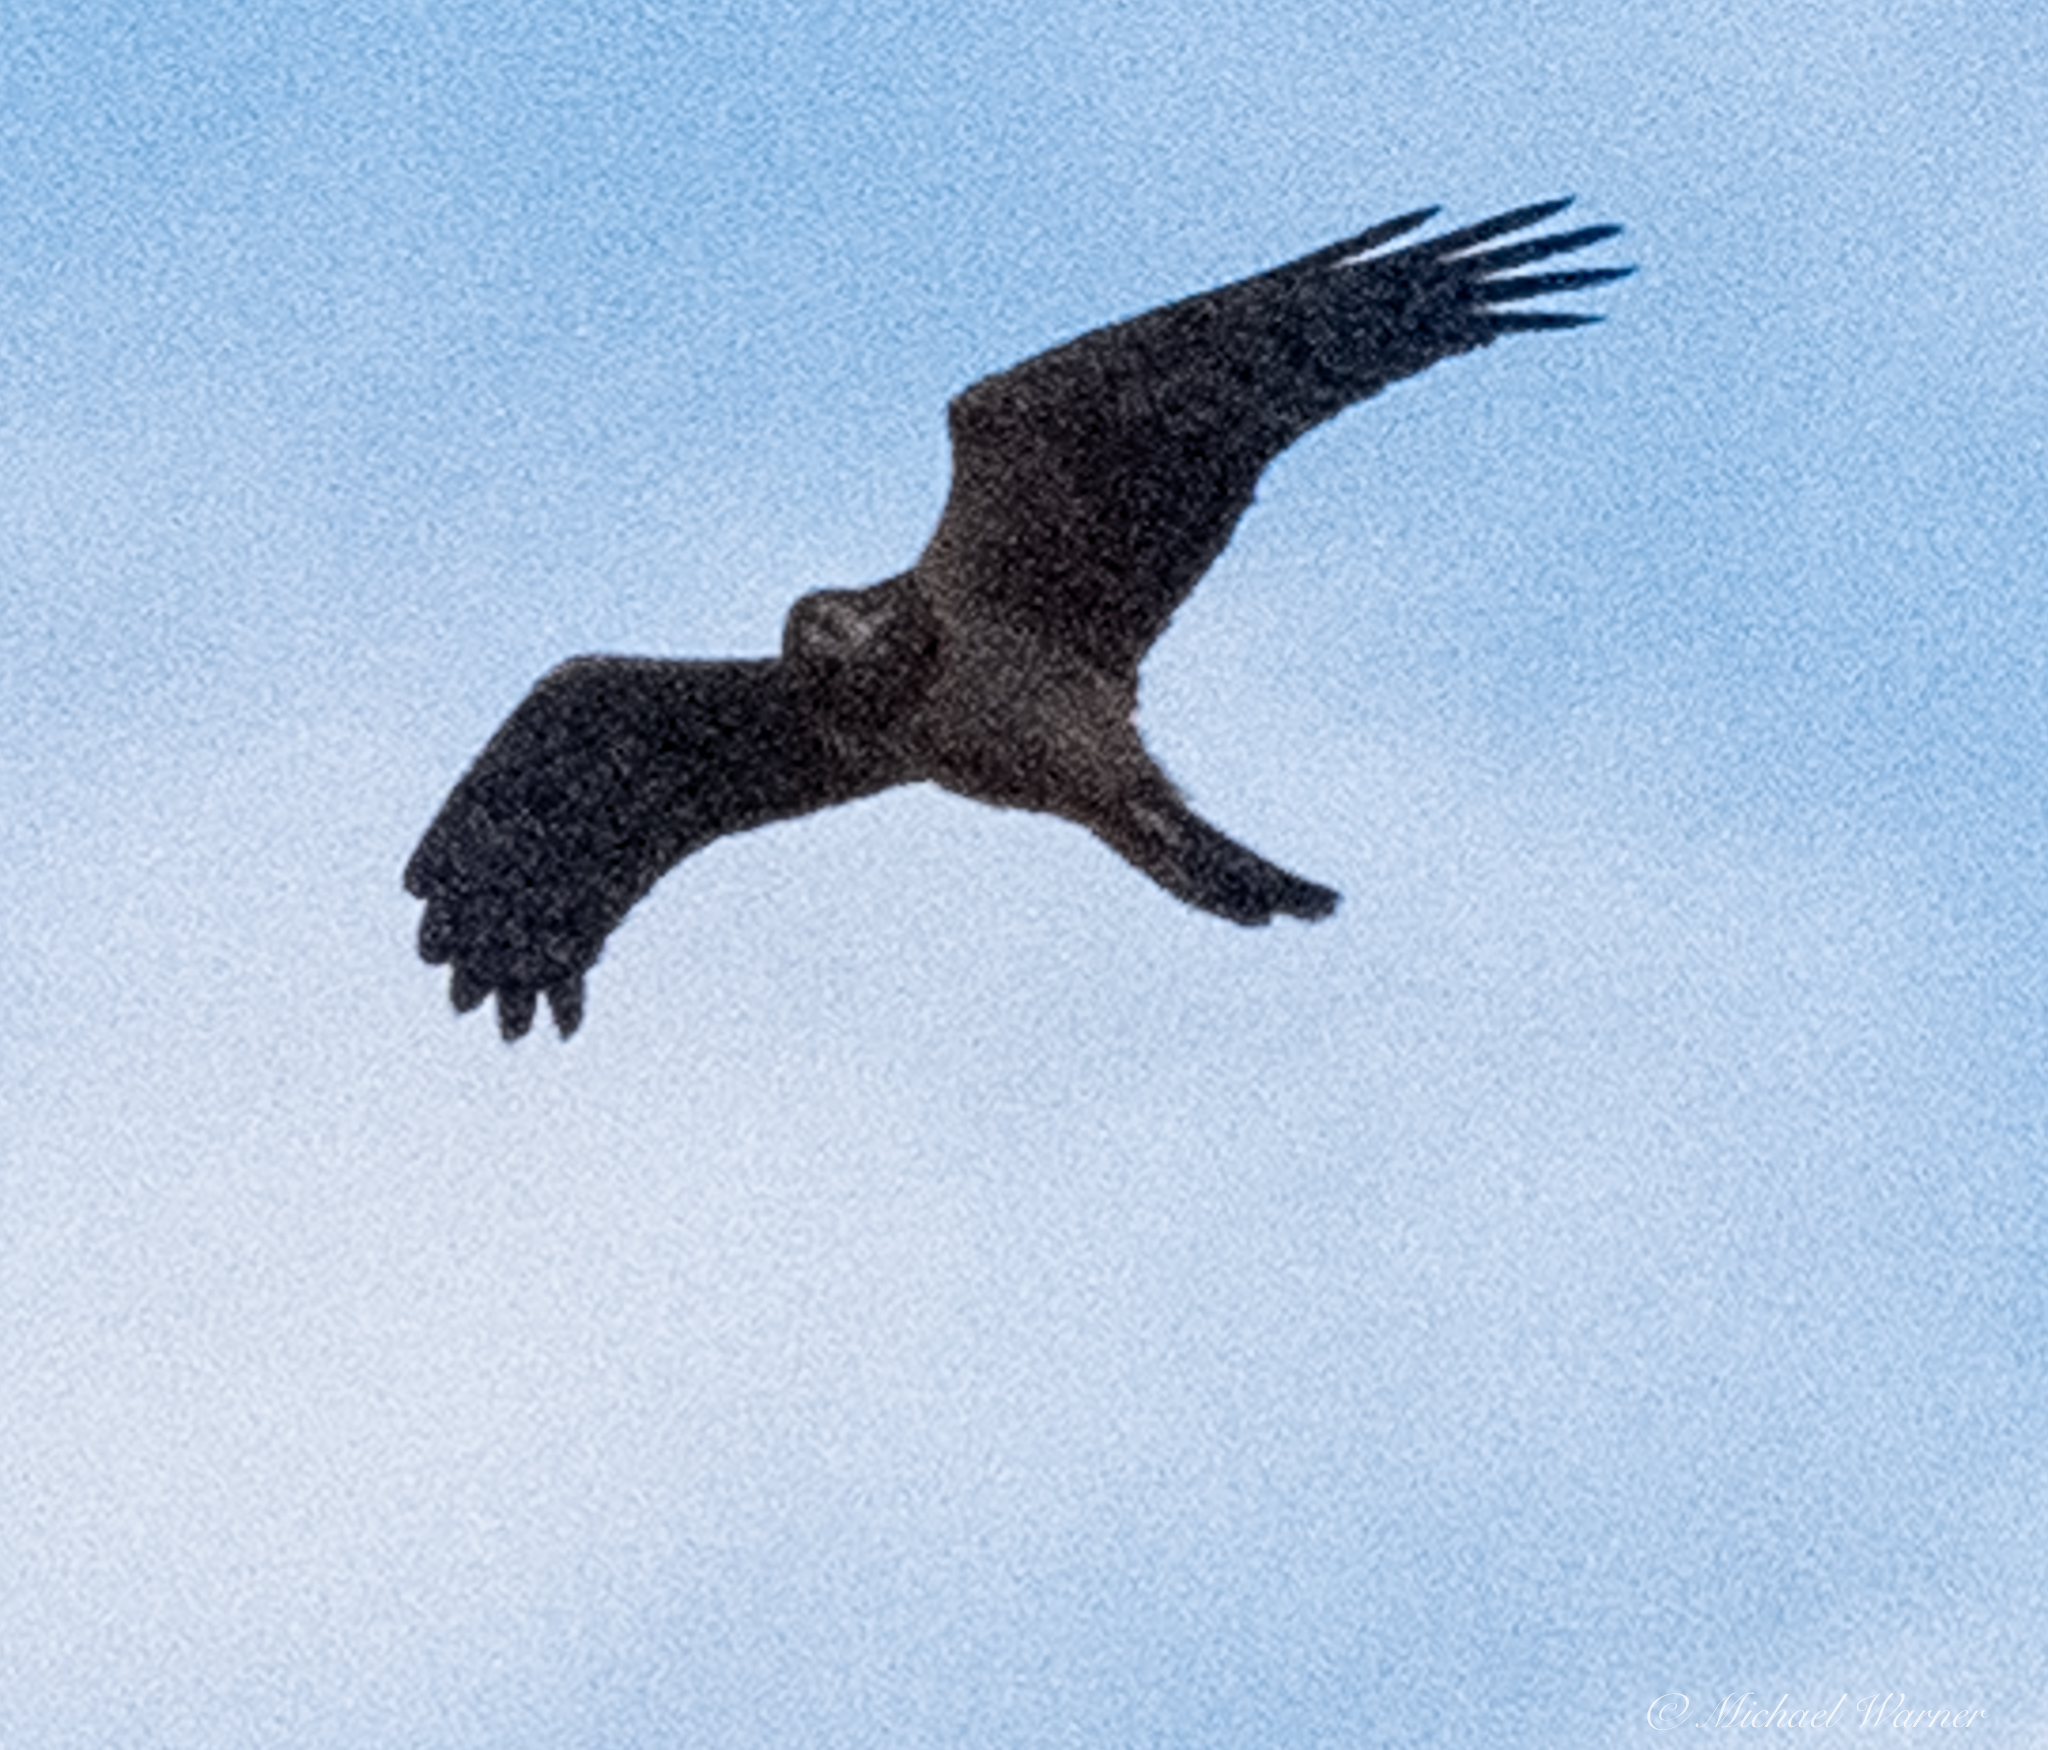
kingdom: Animalia
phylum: Chordata
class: Aves
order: Accipitriformes
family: Accipitridae
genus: Circus
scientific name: Circus cyaneus
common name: Hen harrier
